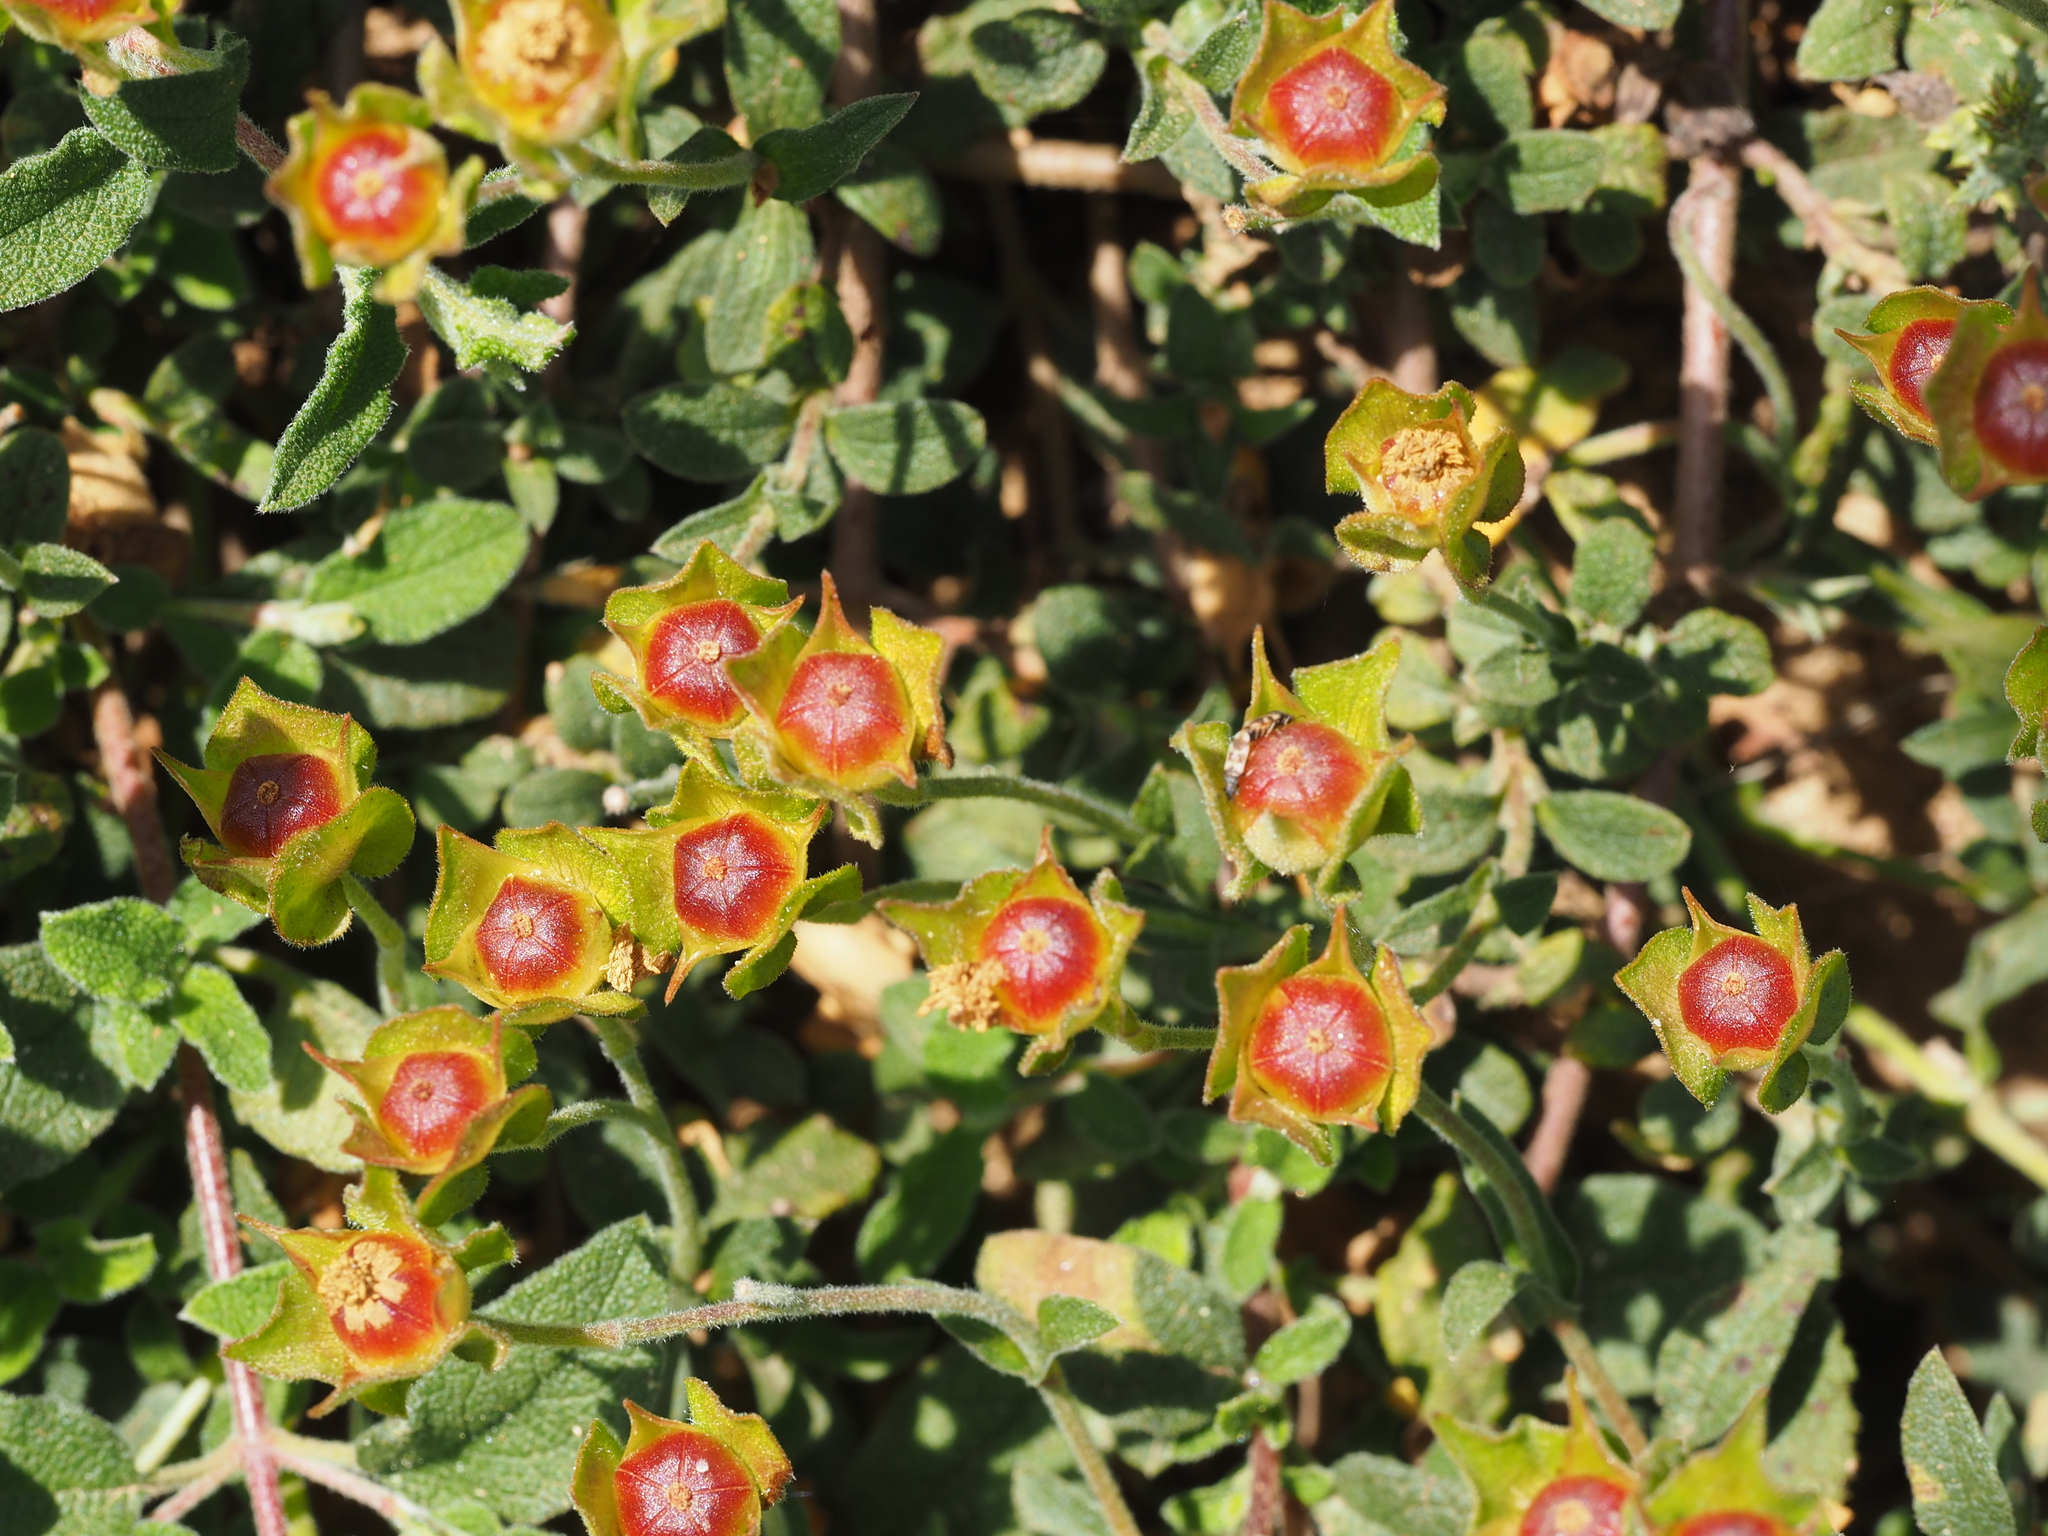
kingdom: Plantae
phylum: Tracheophyta
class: Magnoliopsida
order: Malvales
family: Cistaceae
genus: Cistus
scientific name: Cistus salviifolius
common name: Salvia cistus
